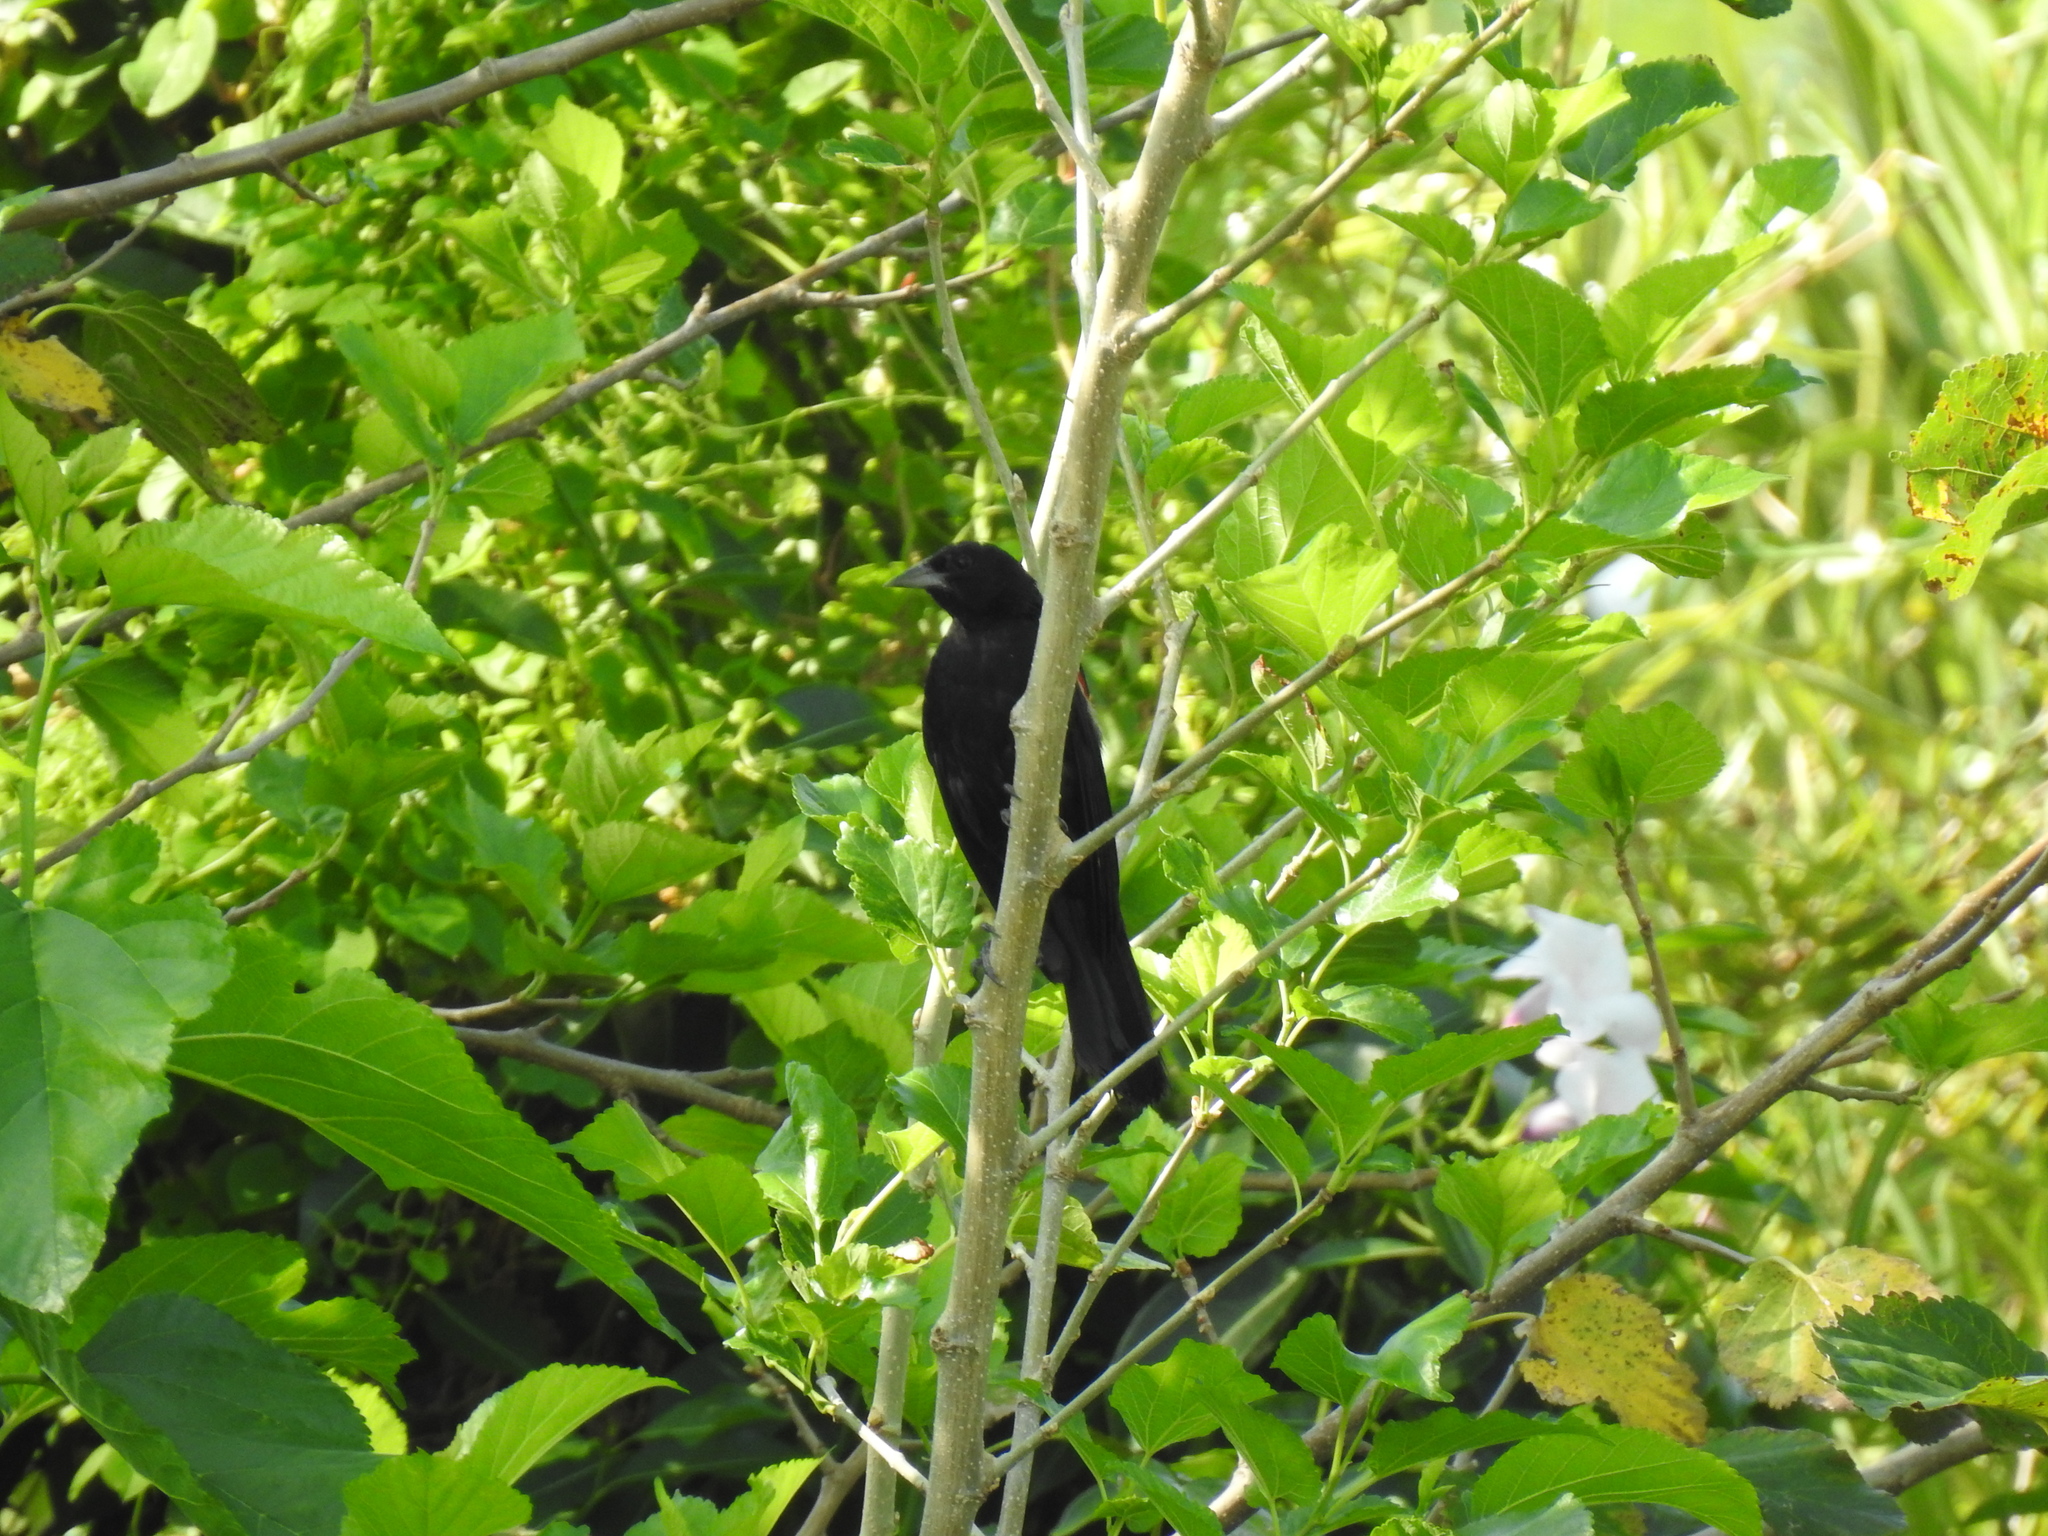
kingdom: Animalia
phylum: Chordata
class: Aves
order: Passeriformes
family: Icteridae
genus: Agelaius
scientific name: Agelaius phoeniceus
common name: Red-winged blackbird
